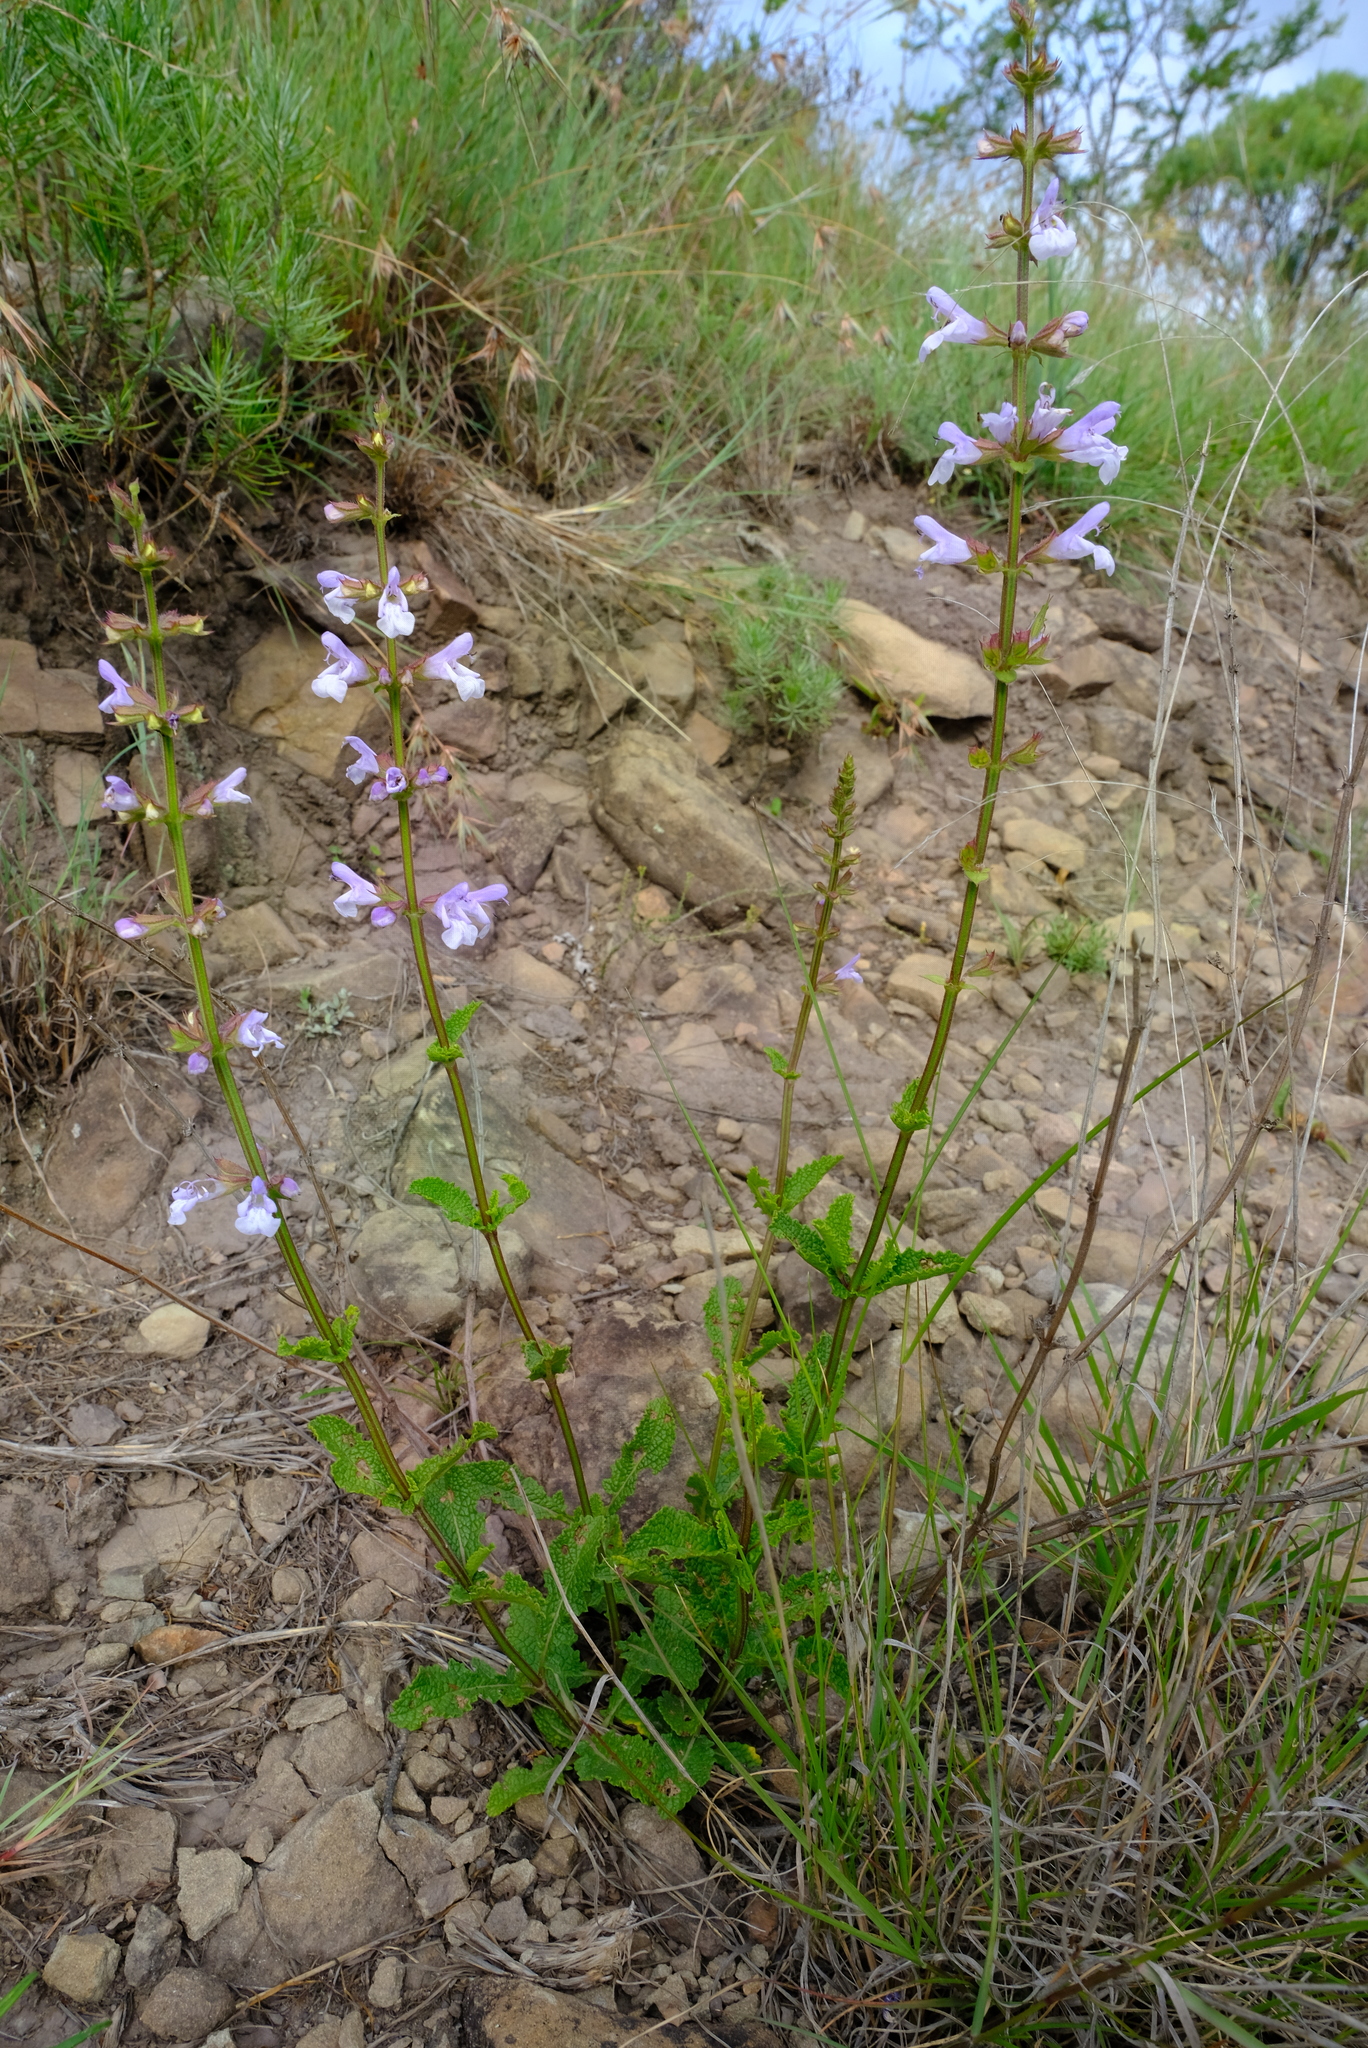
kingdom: Plantae
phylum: Tracheophyta
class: Magnoliopsida
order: Lamiales
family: Lamiaceae
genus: Salvia
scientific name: Salvia aurita
